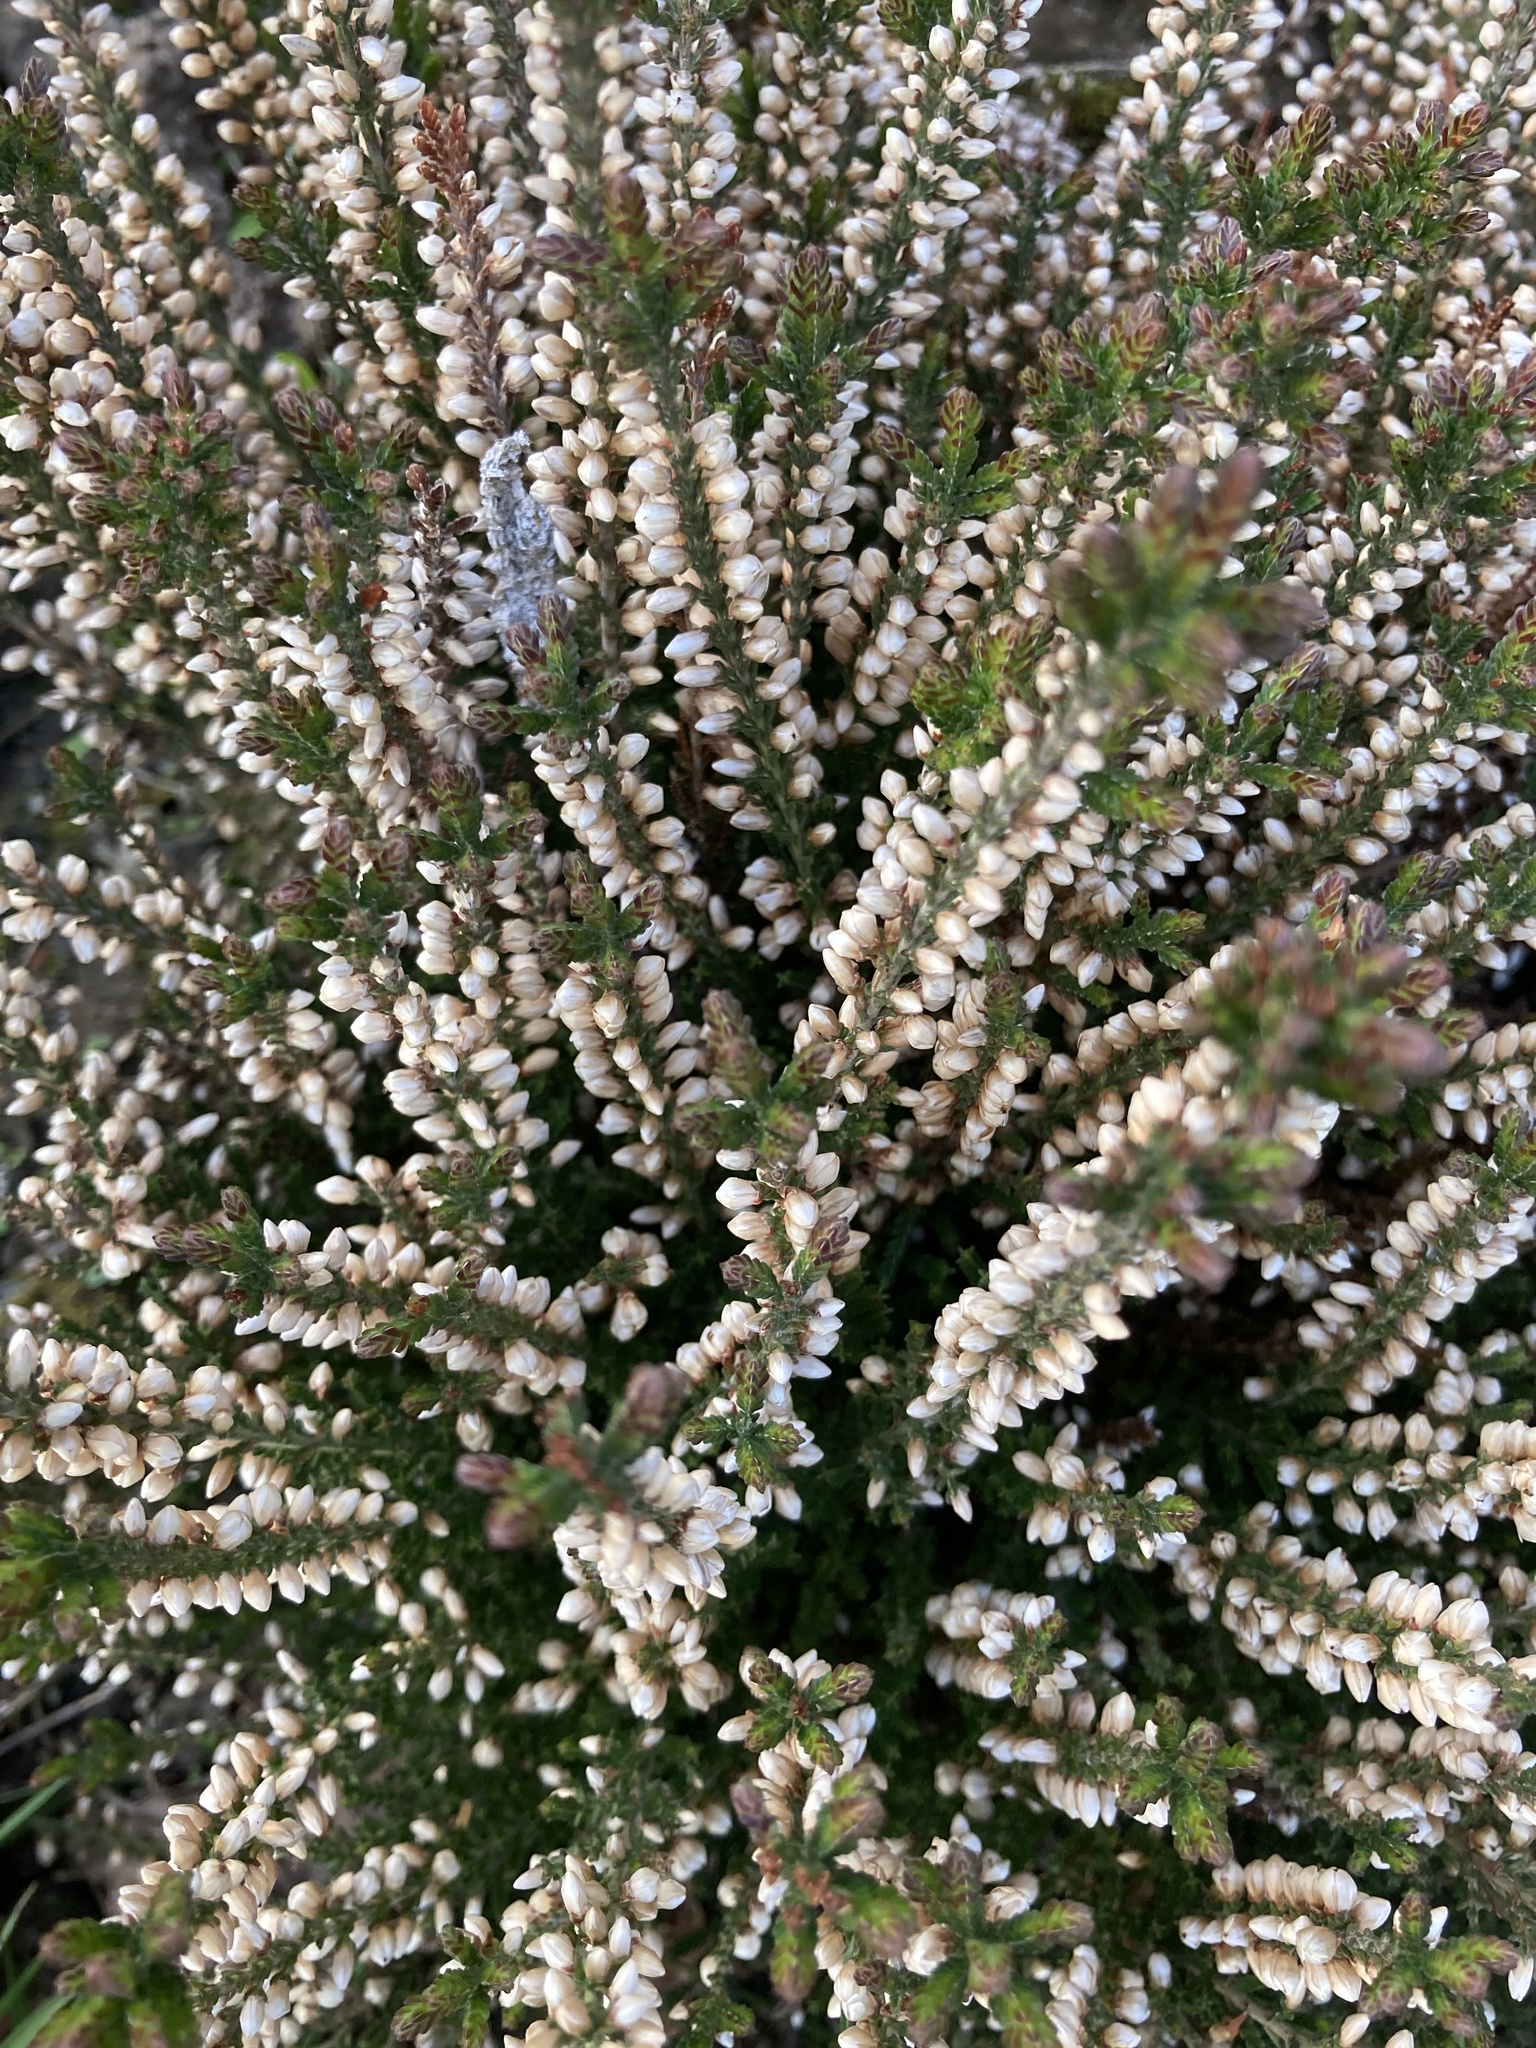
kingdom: Plantae
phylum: Tracheophyta
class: Magnoliopsida
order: Ericales
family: Ericaceae
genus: Calluna
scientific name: Calluna vulgaris
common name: Heather
